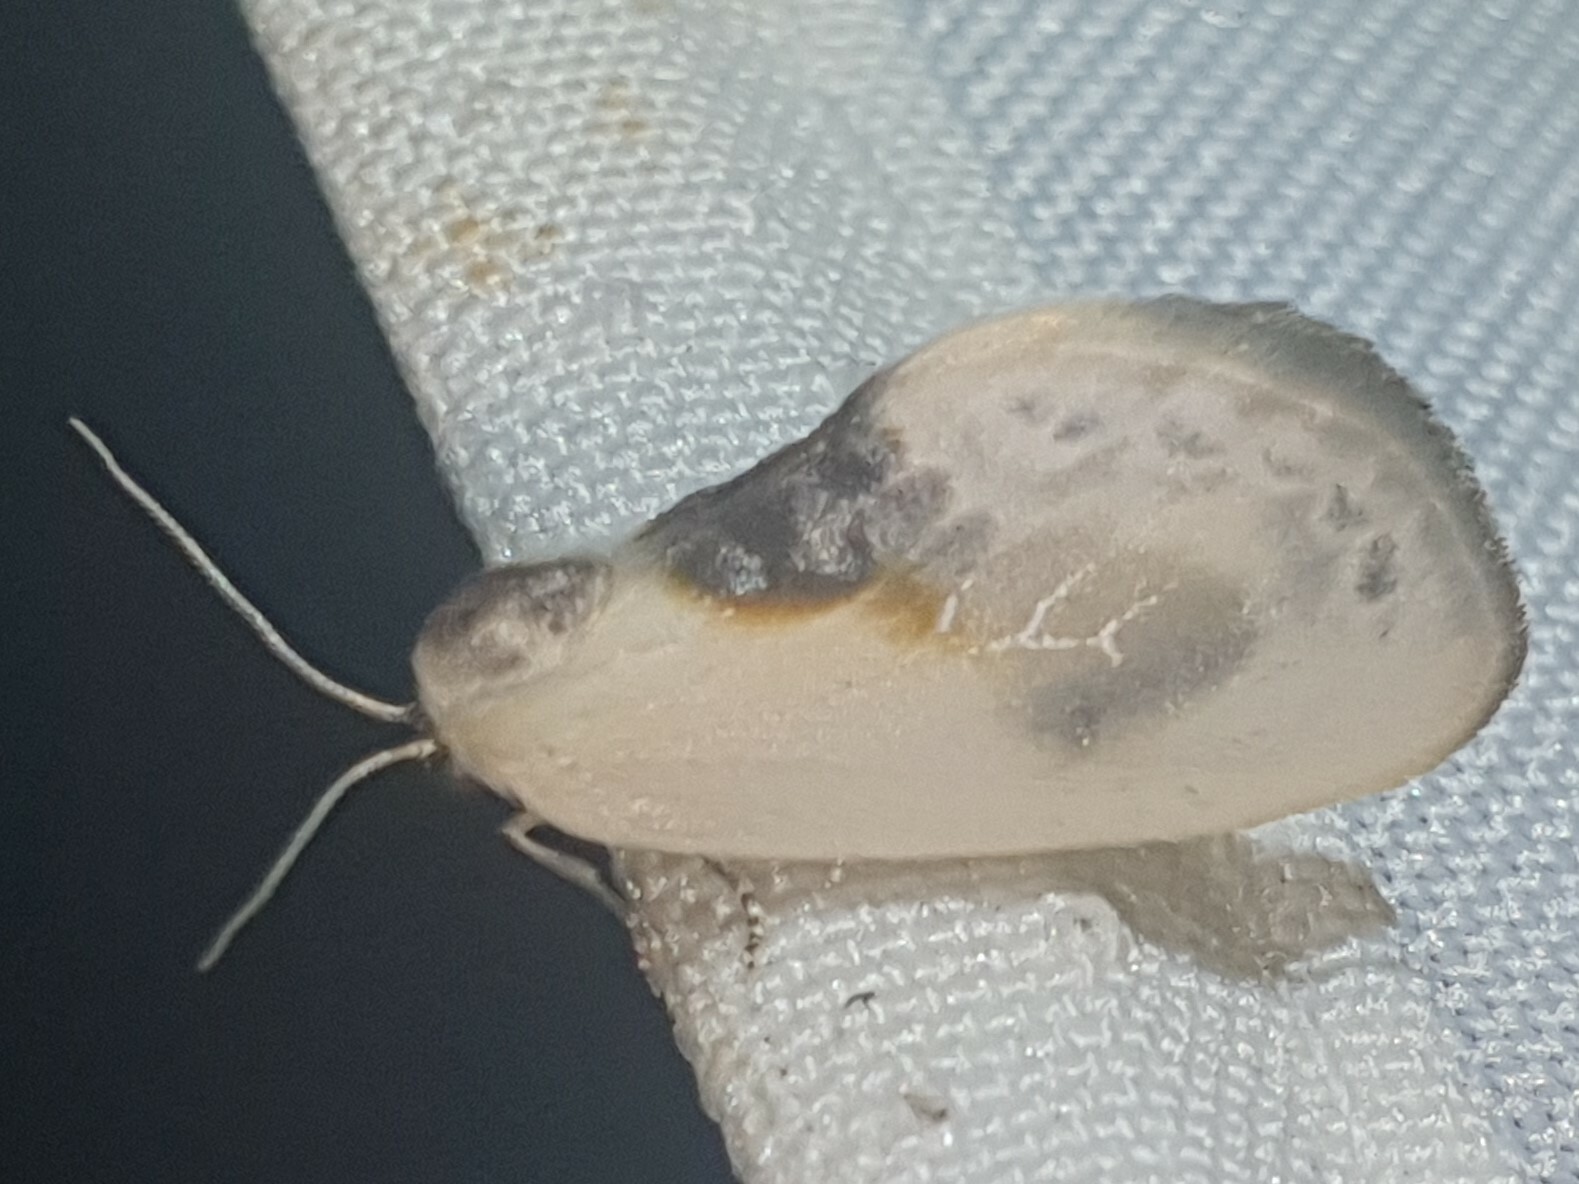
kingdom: Animalia
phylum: Arthropoda
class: Insecta
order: Lepidoptera
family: Drepanidae
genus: Cilix
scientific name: Cilix glaucata
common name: Chinese character
